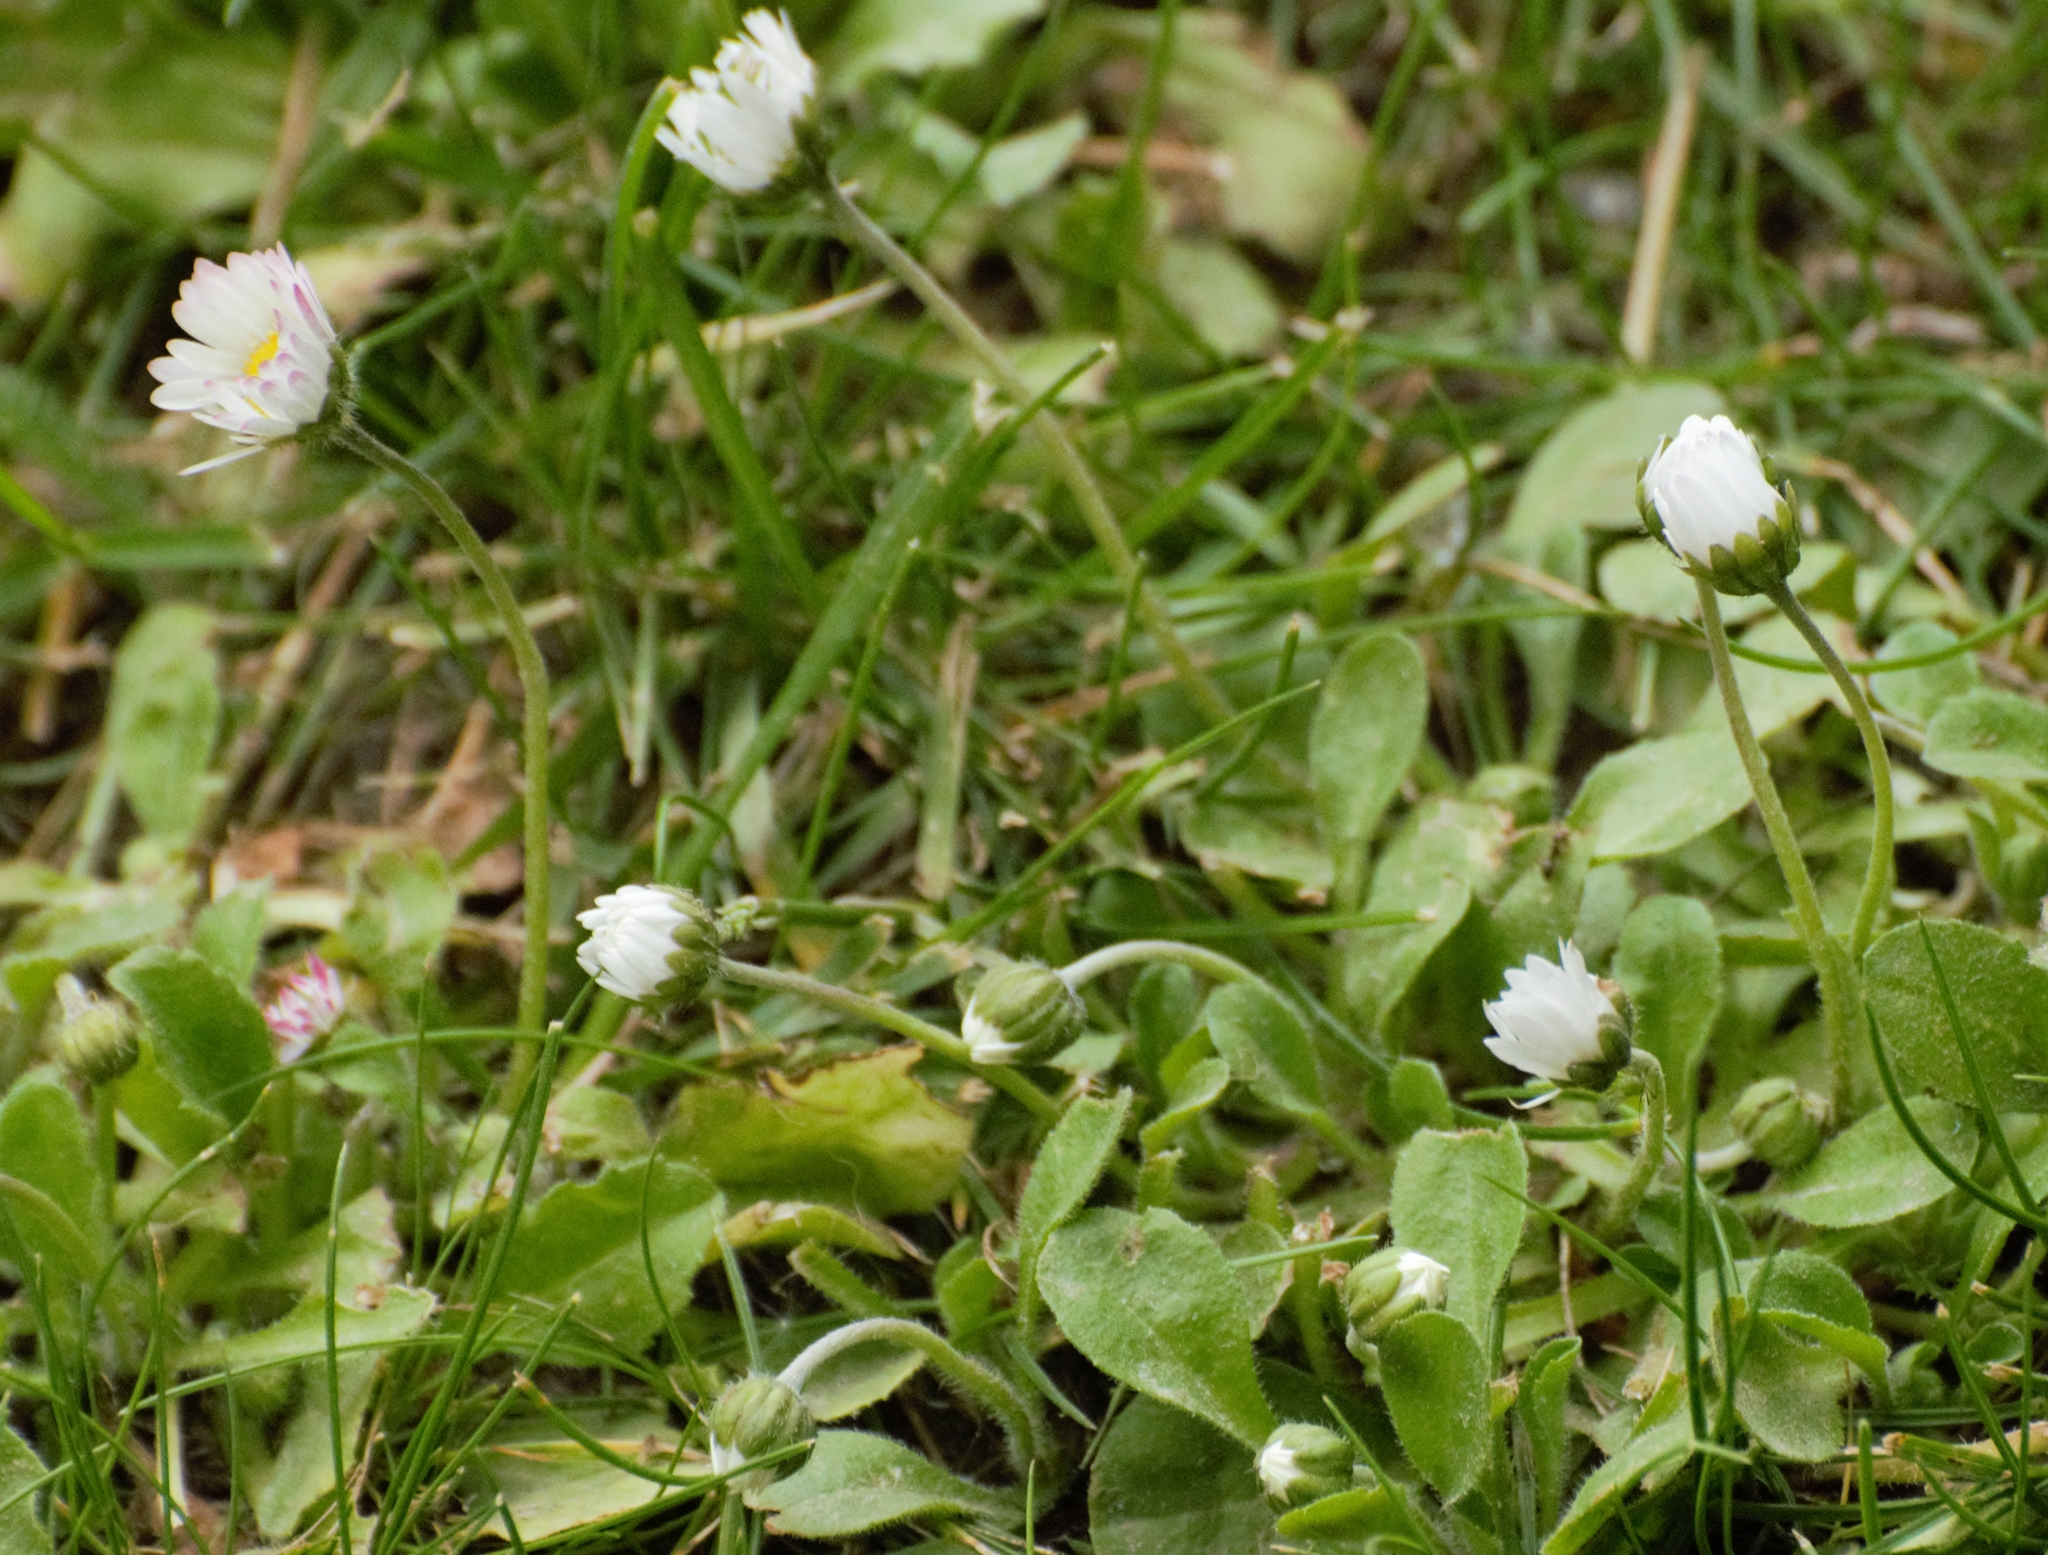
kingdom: Plantae
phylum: Tracheophyta
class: Magnoliopsida
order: Asterales
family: Asteraceae
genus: Bellis
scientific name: Bellis perennis
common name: Lawndaisy
